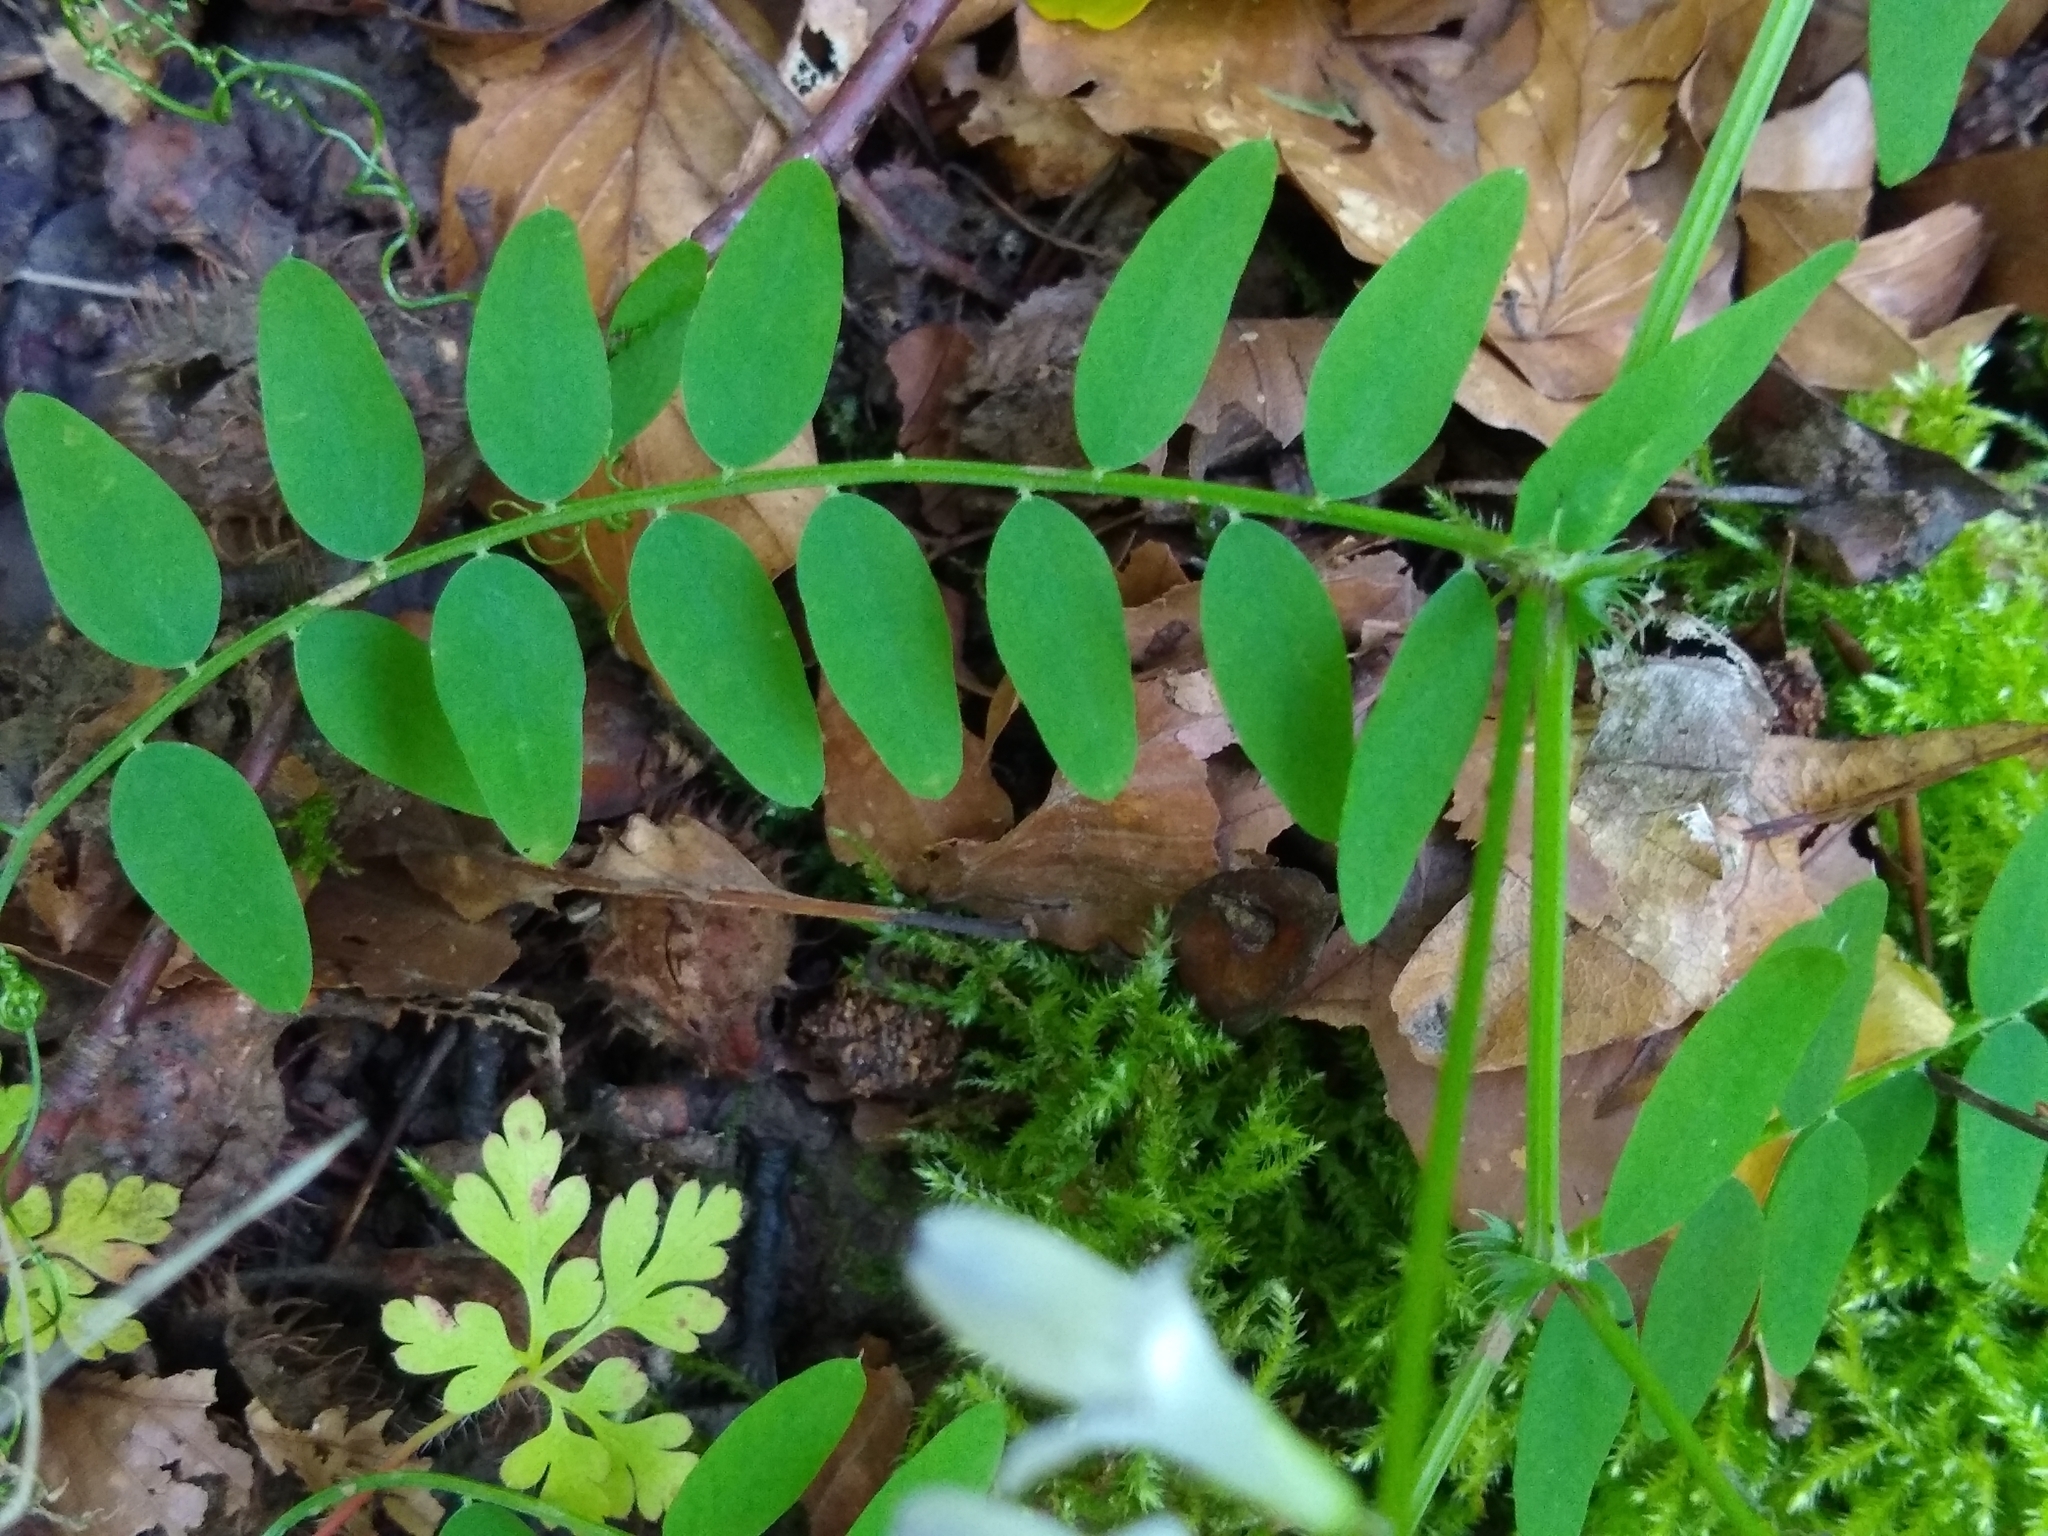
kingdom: Plantae
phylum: Tracheophyta
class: Magnoliopsida
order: Fabales
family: Fabaceae
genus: Vicia
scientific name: Vicia sylvatica
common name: Wood vetch
